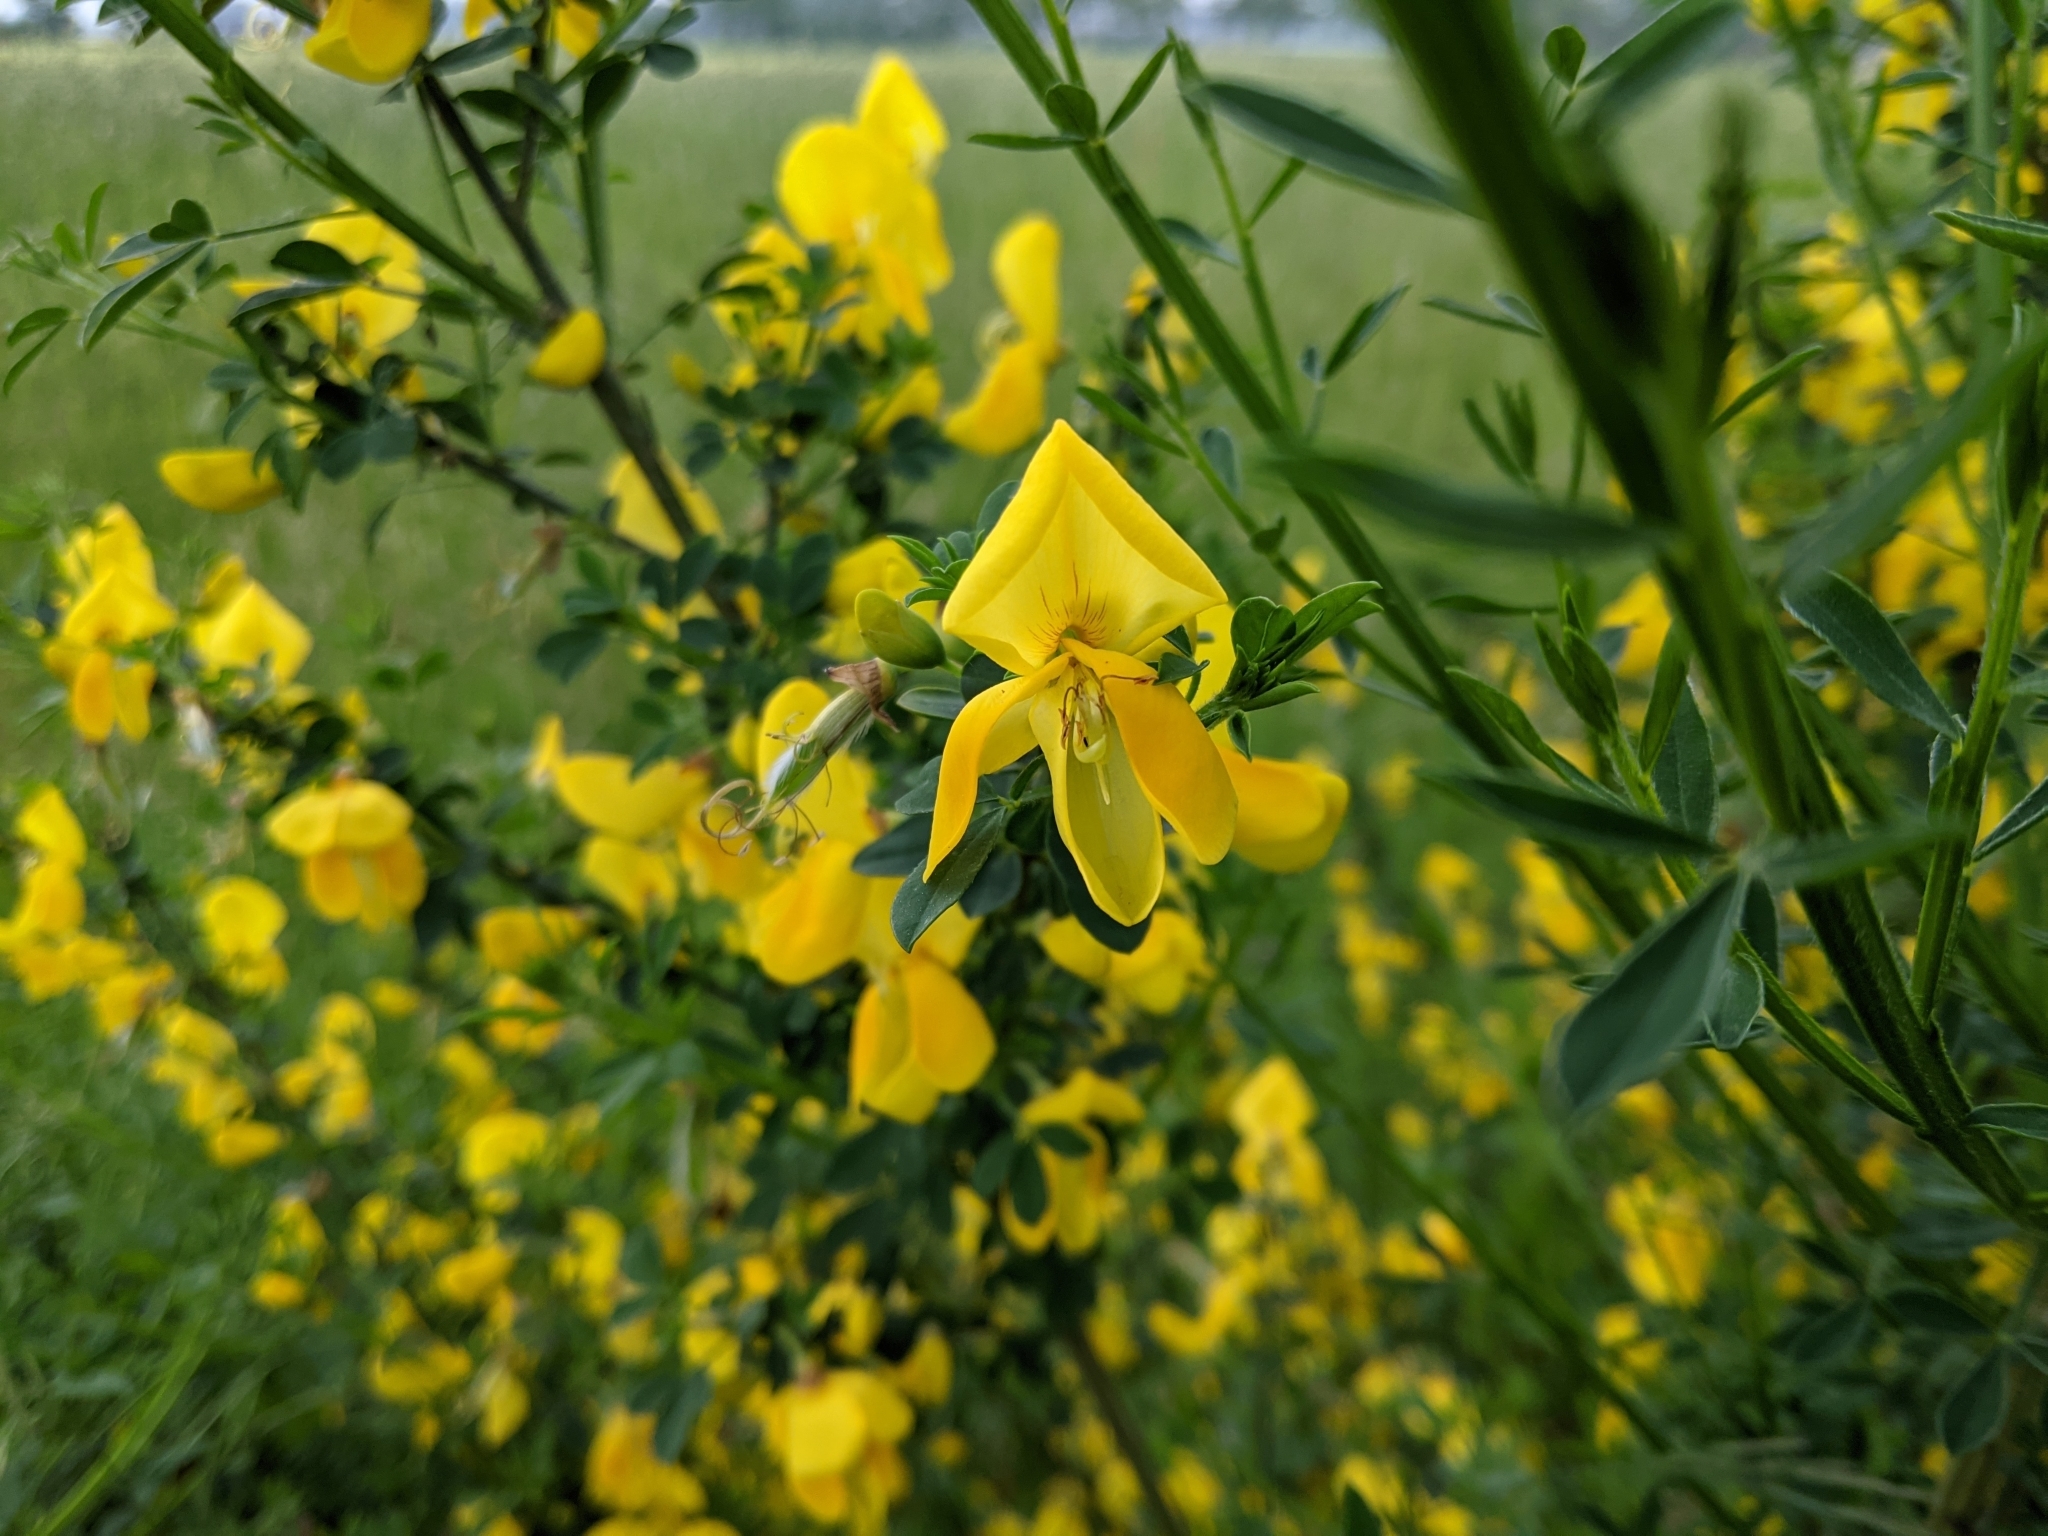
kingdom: Plantae
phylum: Tracheophyta
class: Magnoliopsida
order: Fabales
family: Fabaceae
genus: Cytisus
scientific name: Cytisus scoparius
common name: Scotch broom
